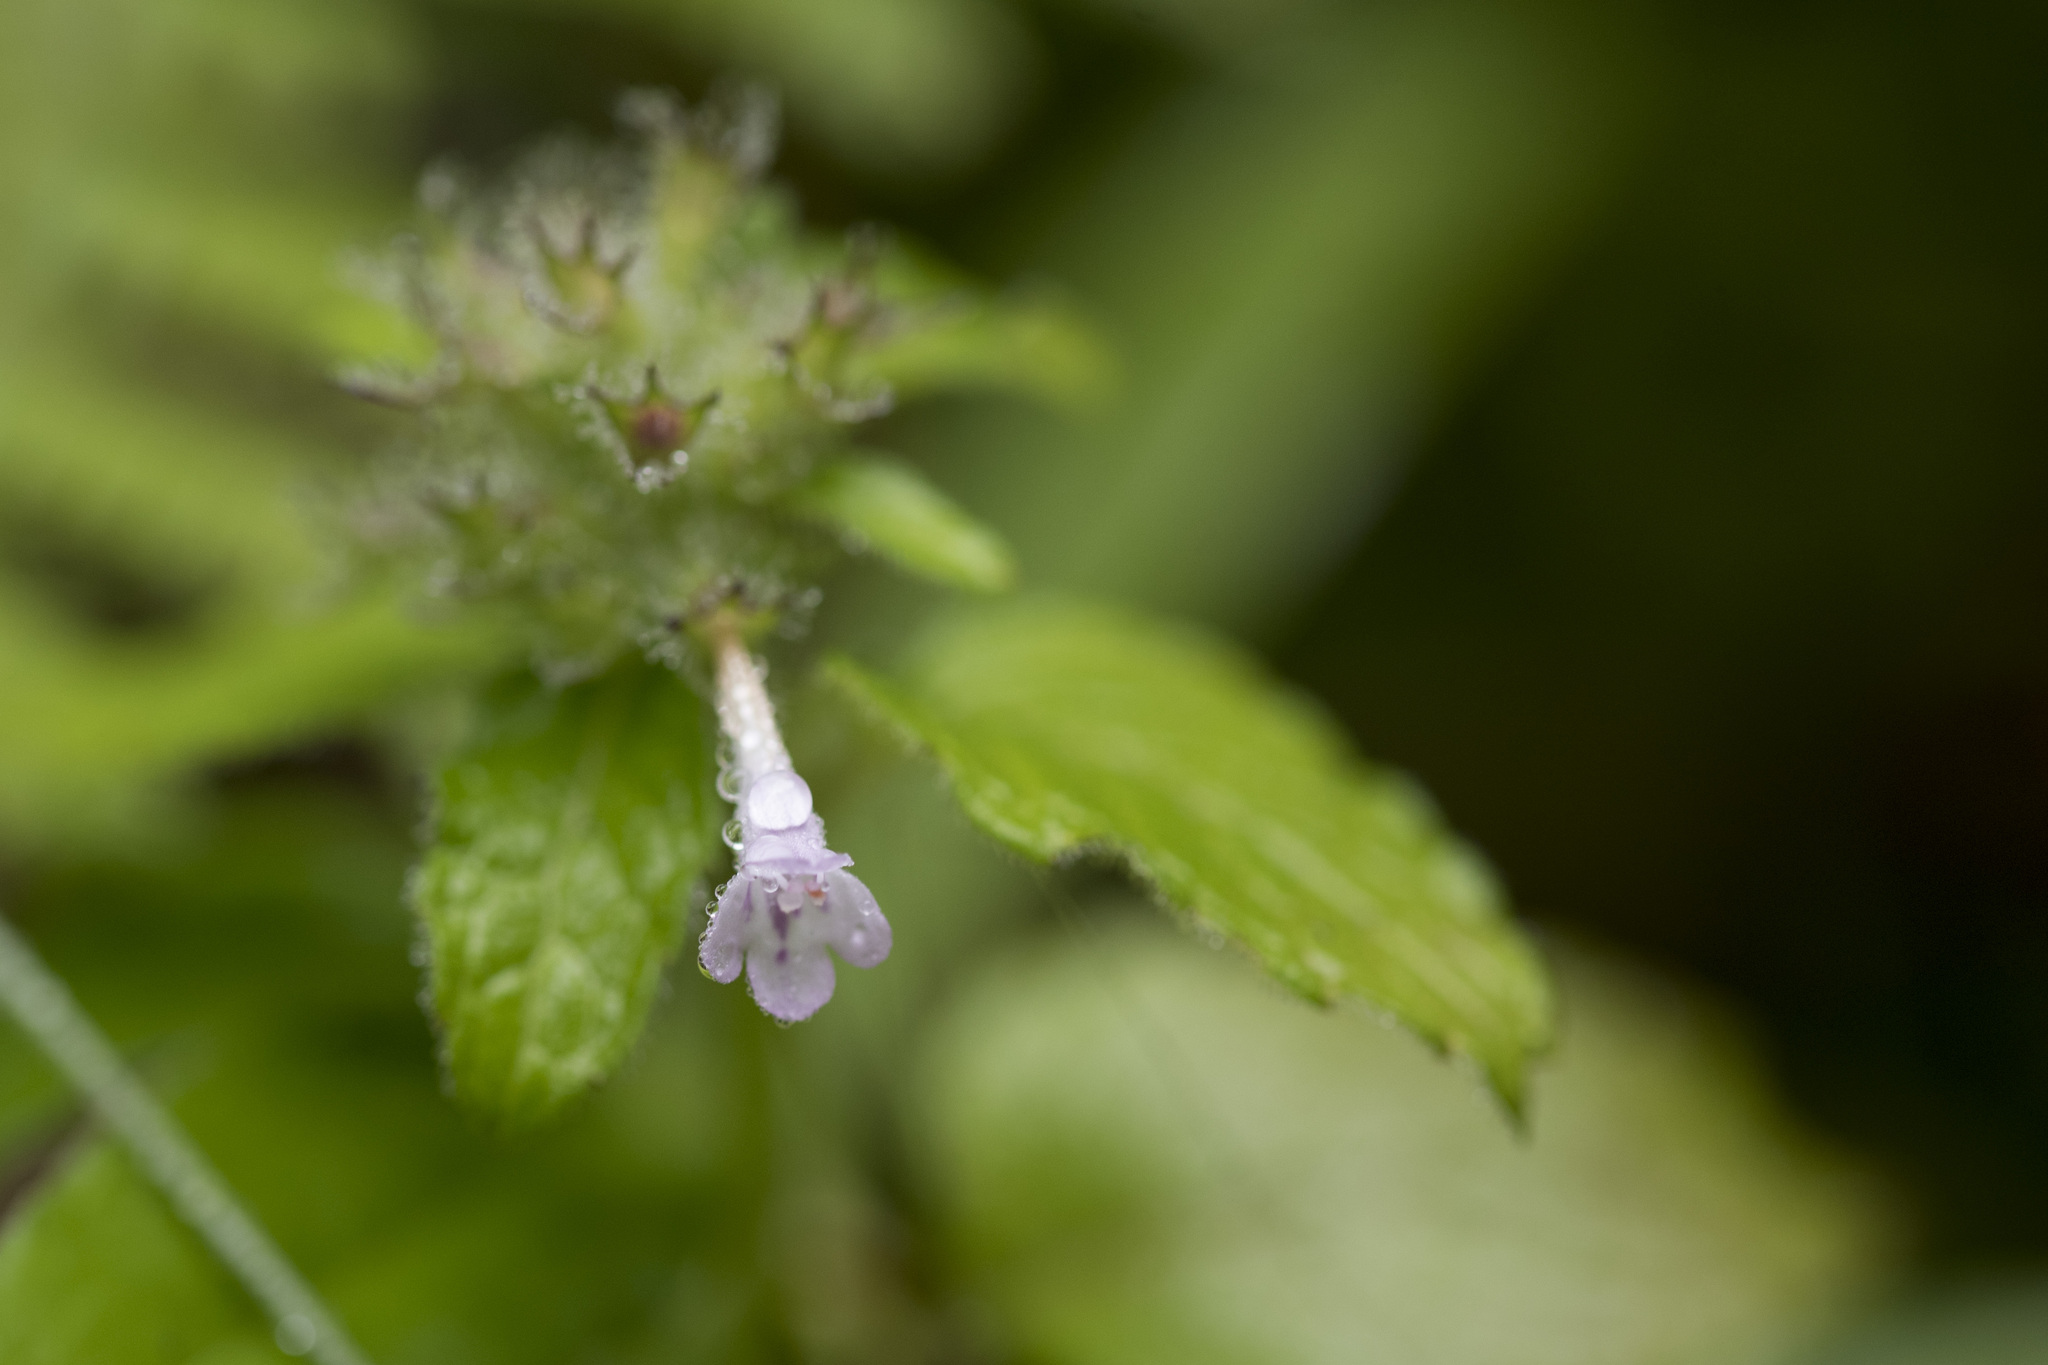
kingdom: Plantae
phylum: Tracheophyta
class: Magnoliopsida
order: Lamiales
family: Lamiaceae
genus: Clinopodium
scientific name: Clinopodium chinense
